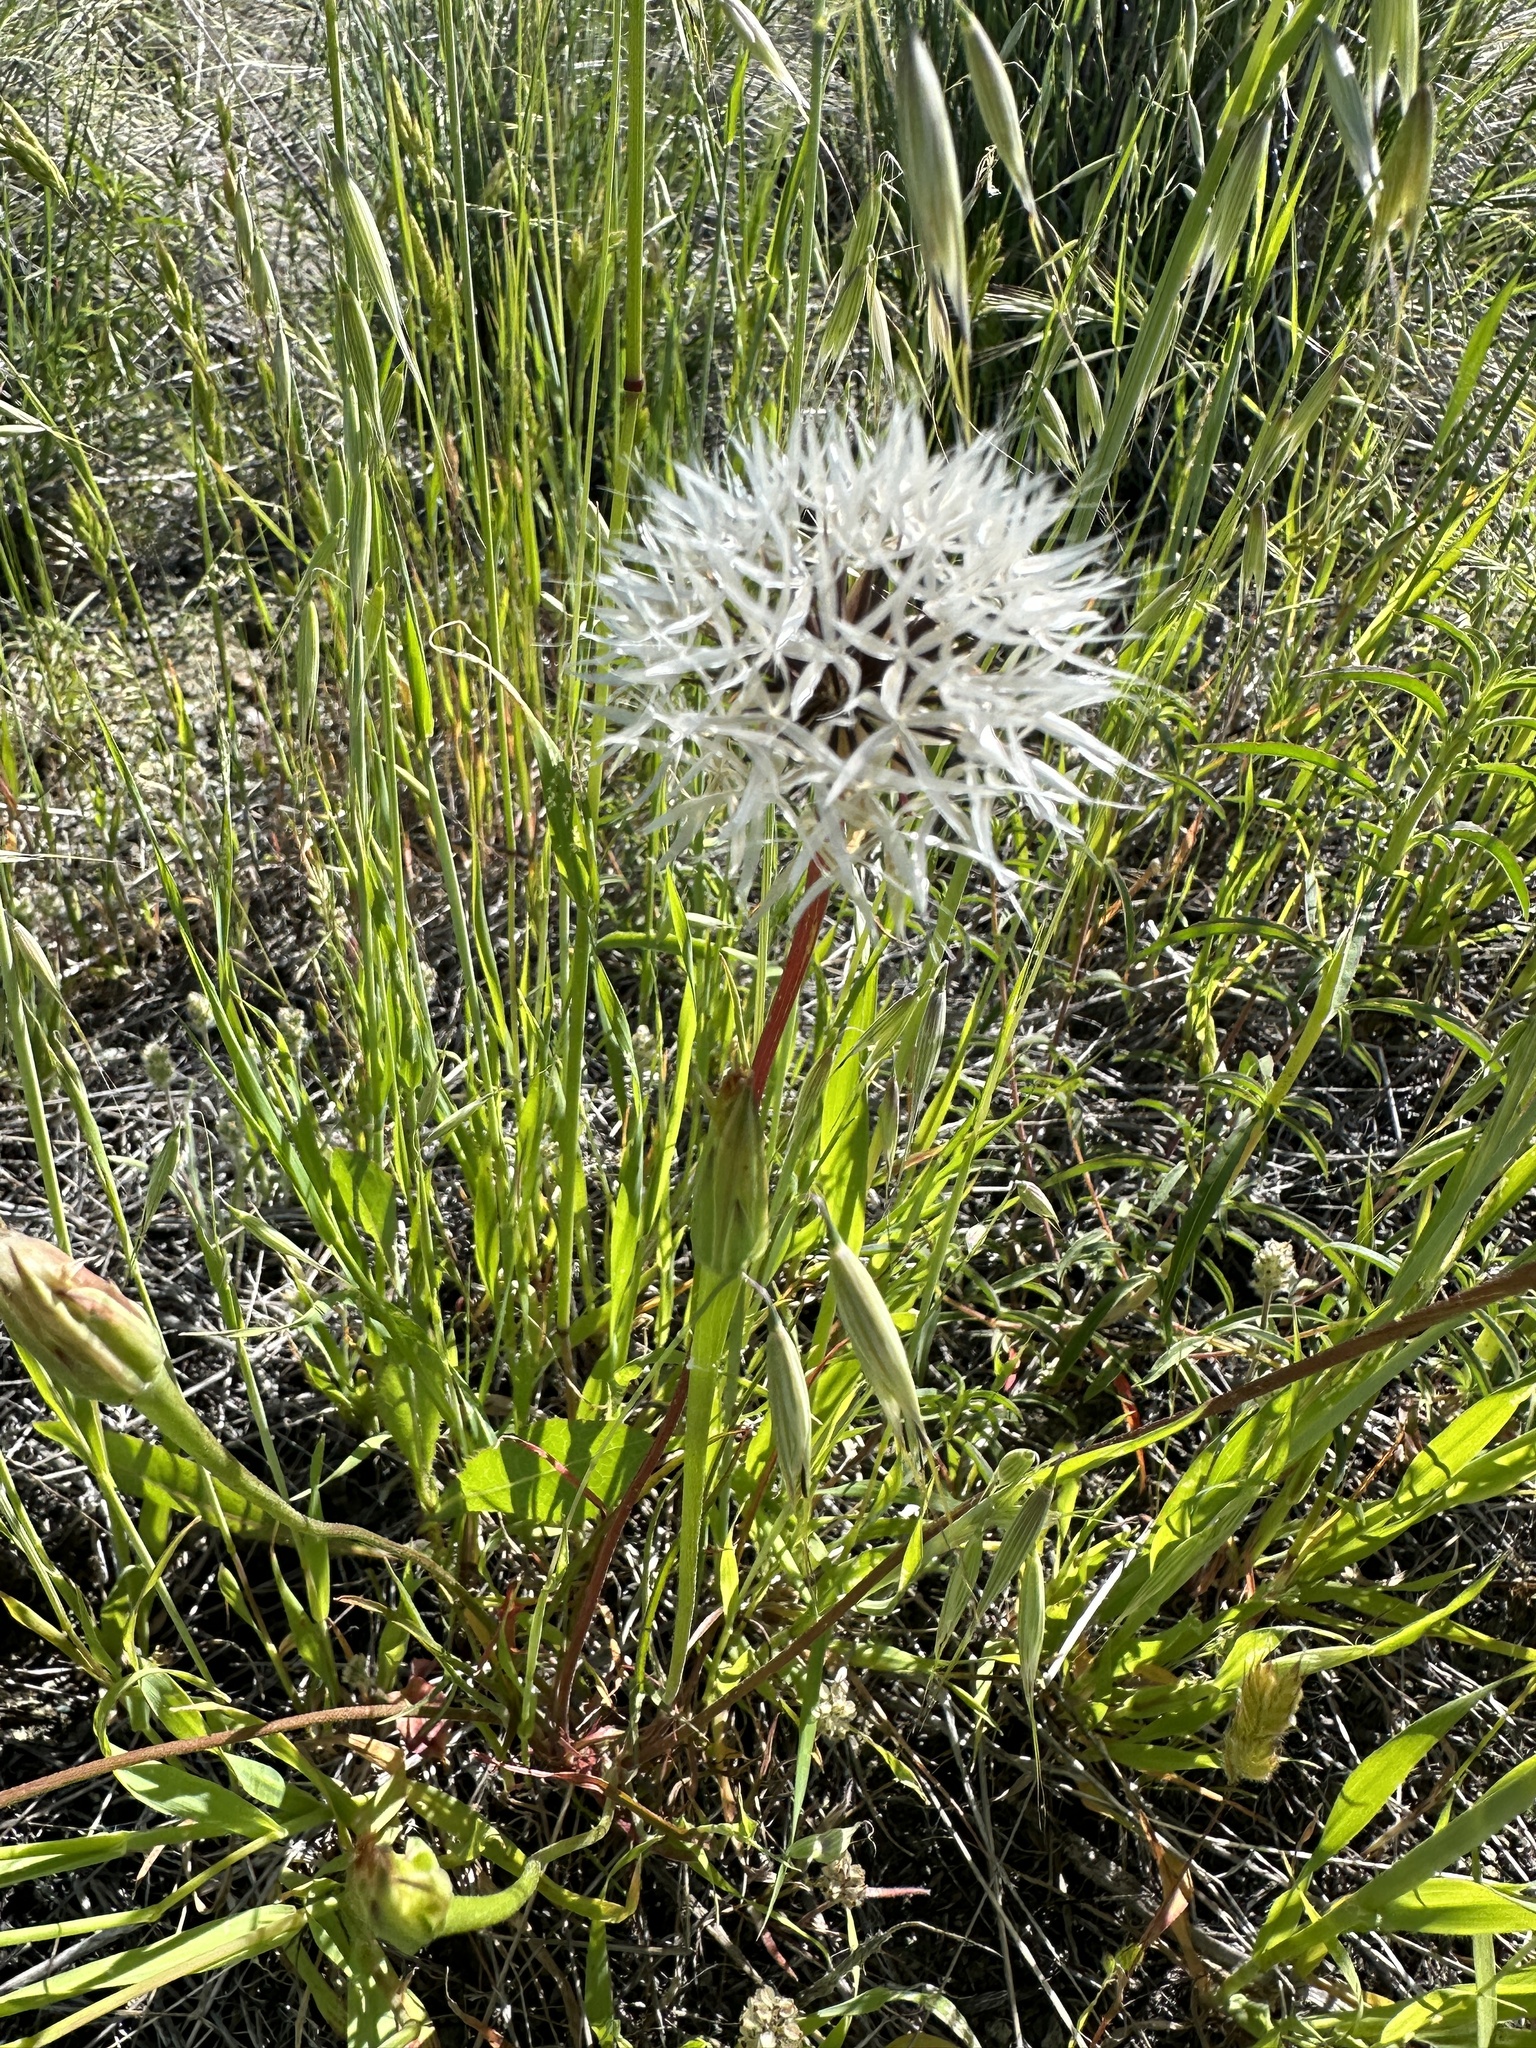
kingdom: Plantae
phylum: Tracheophyta
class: Magnoliopsida
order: Asterales
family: Asteraceae
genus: Microseris
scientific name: Microseris lindleyi
